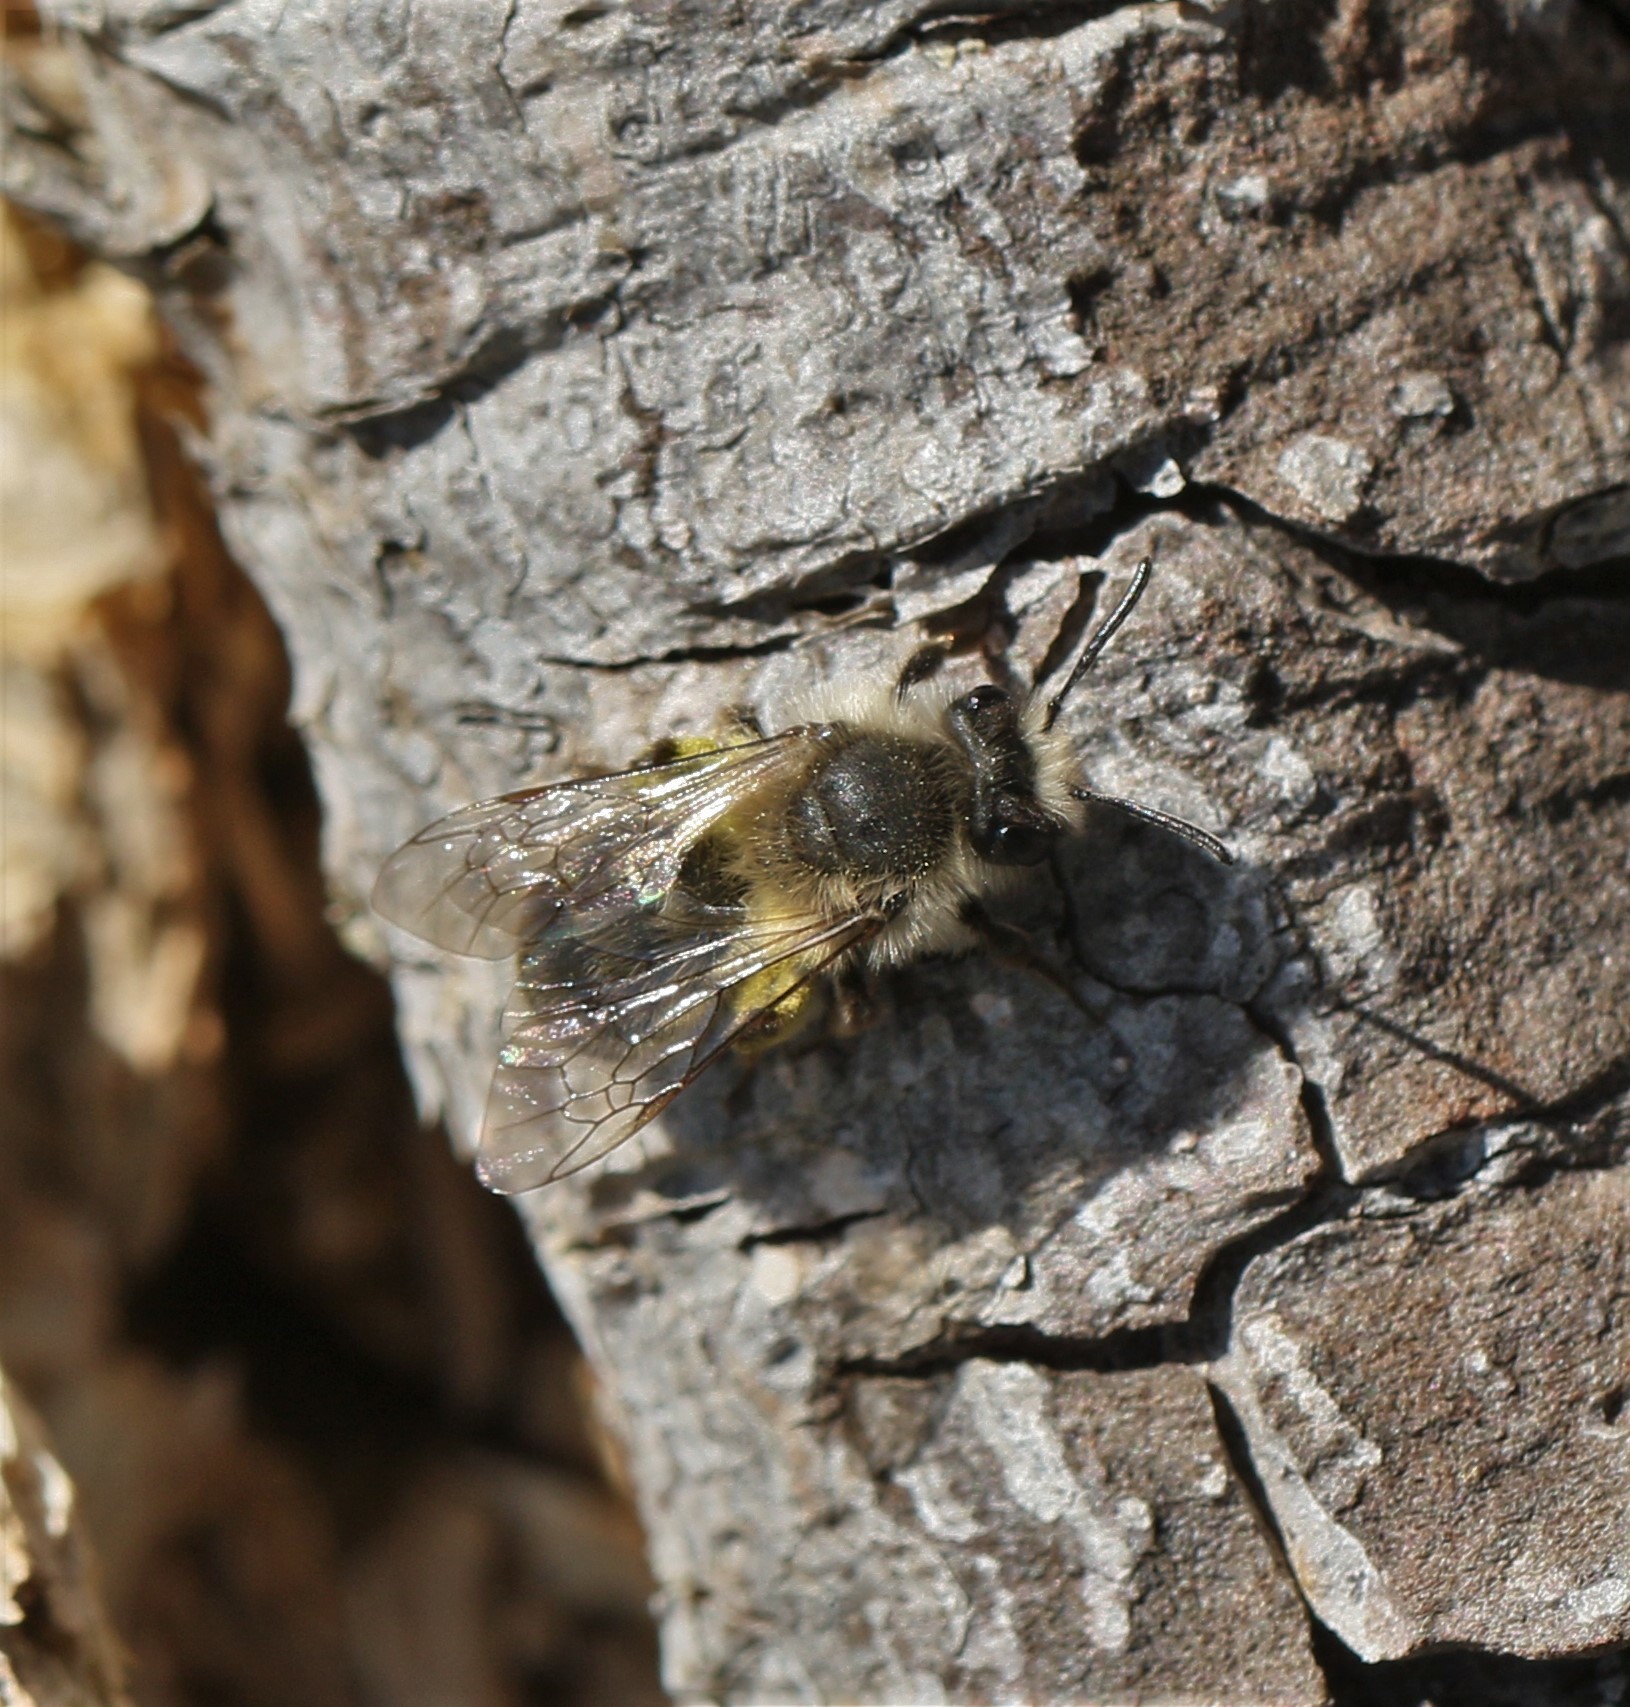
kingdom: Animalia
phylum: Arthropoda
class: Insecta
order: Hymenoptera
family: Andrenidae
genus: Andrena
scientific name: Andrena frigida
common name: Frigid mining bee
